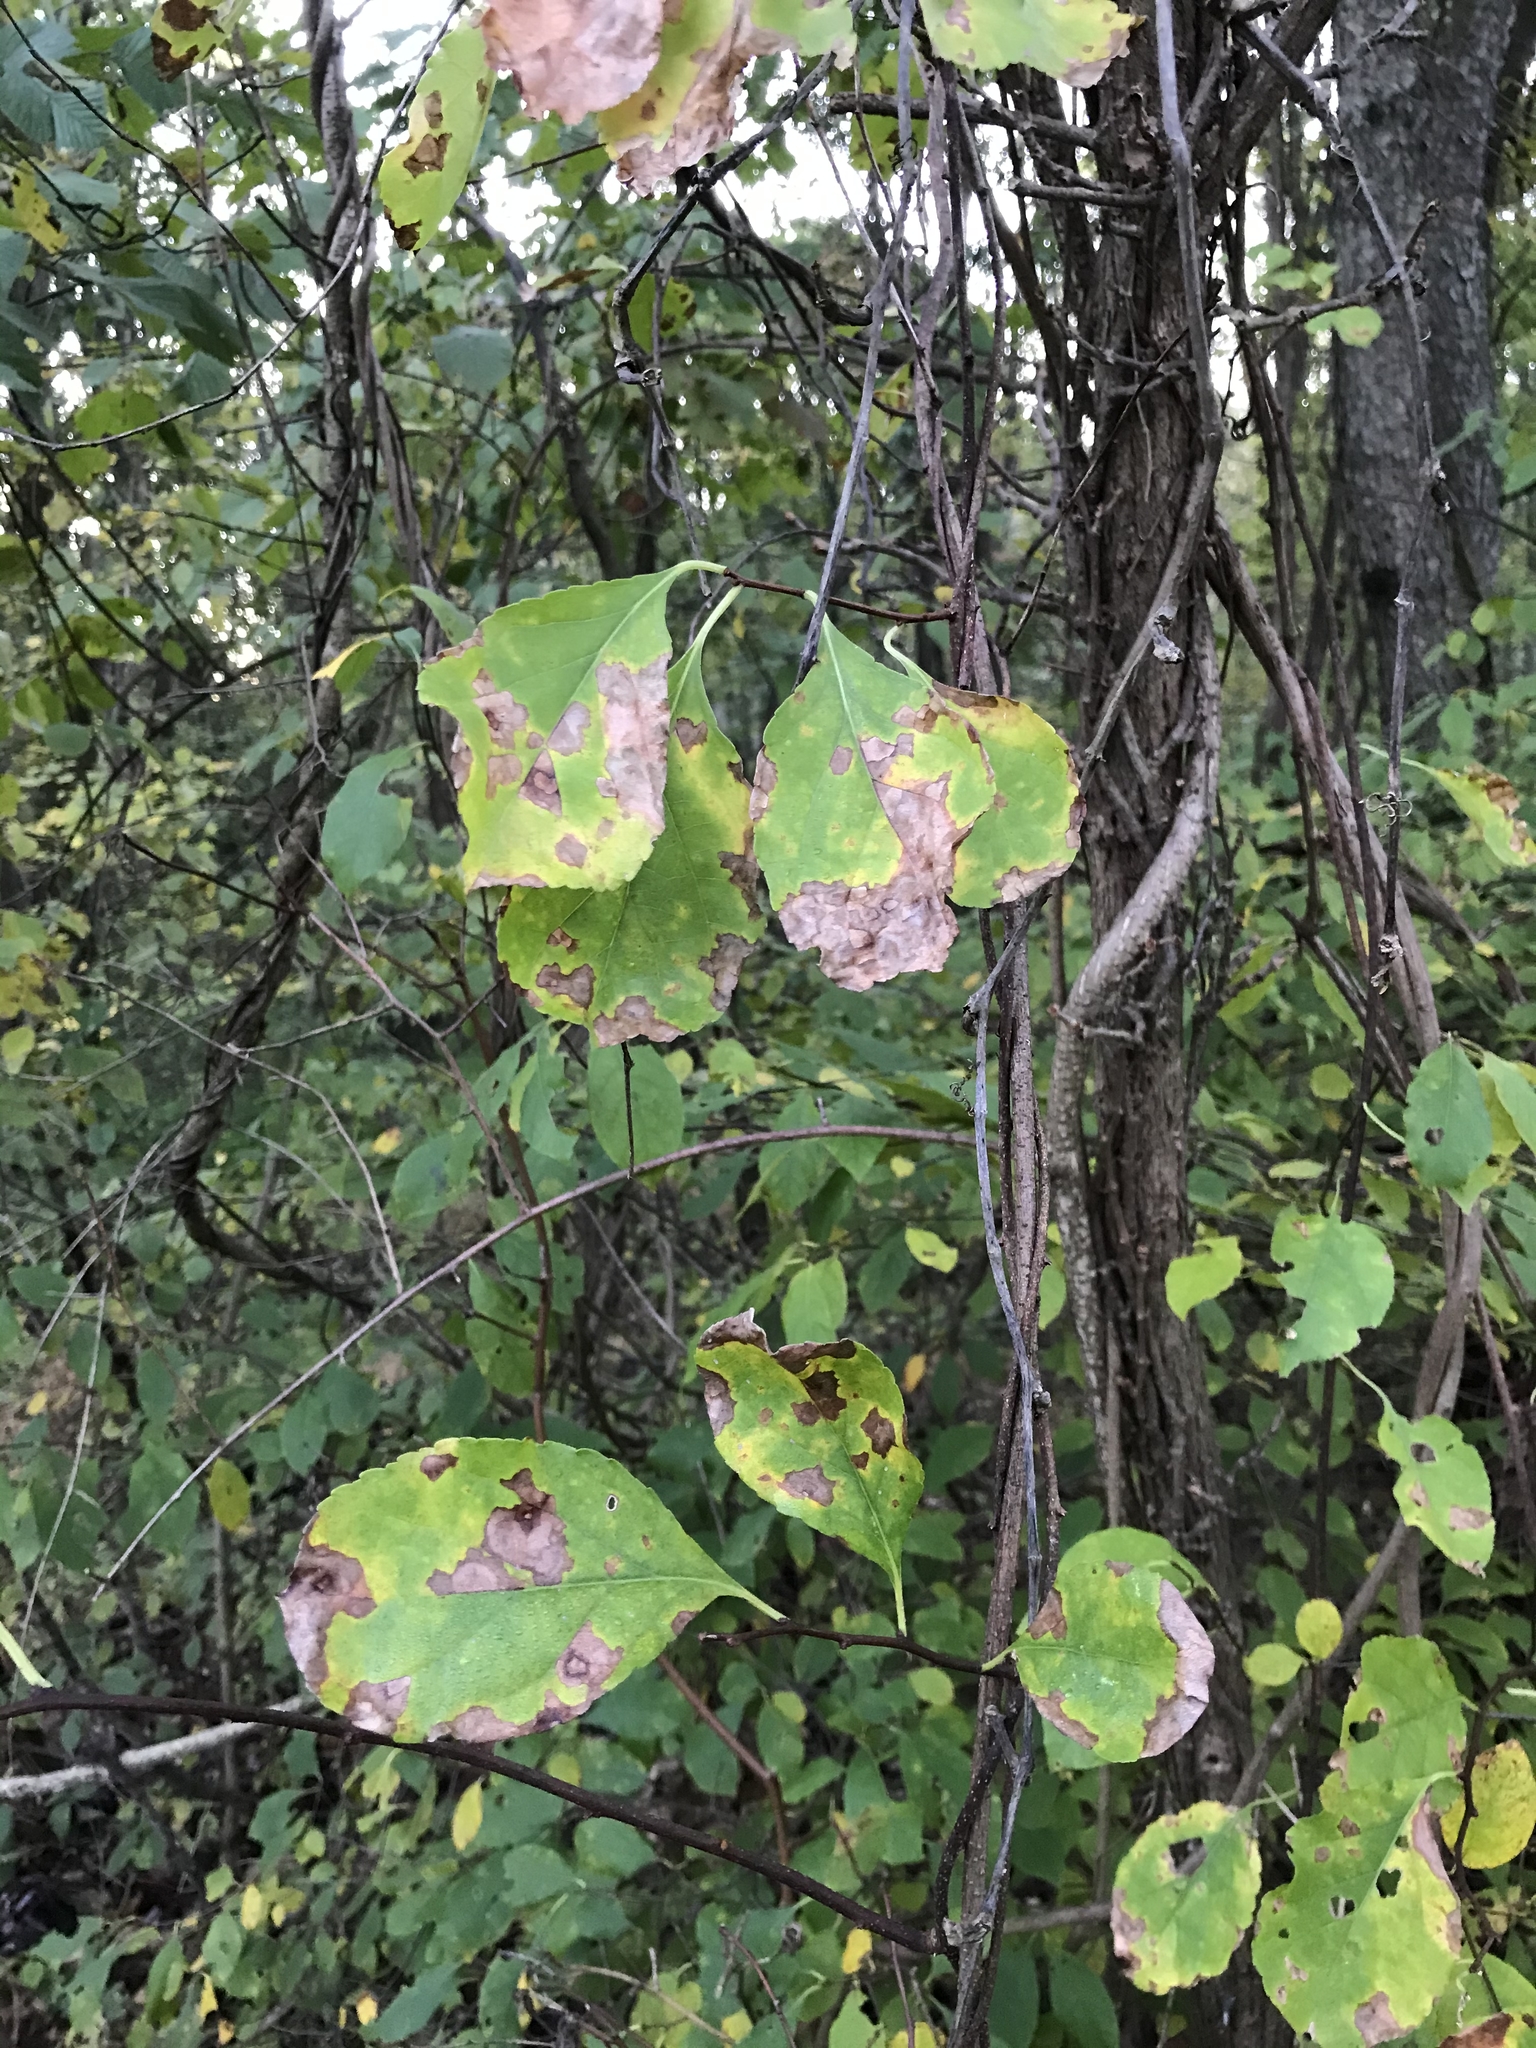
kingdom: Plantae
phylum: Tracheophyta
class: Magnoliopsida
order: Celastrales
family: Celastraceae
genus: Celastrus
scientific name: Celastrus orbiculatus
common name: Oriental bittersweet
